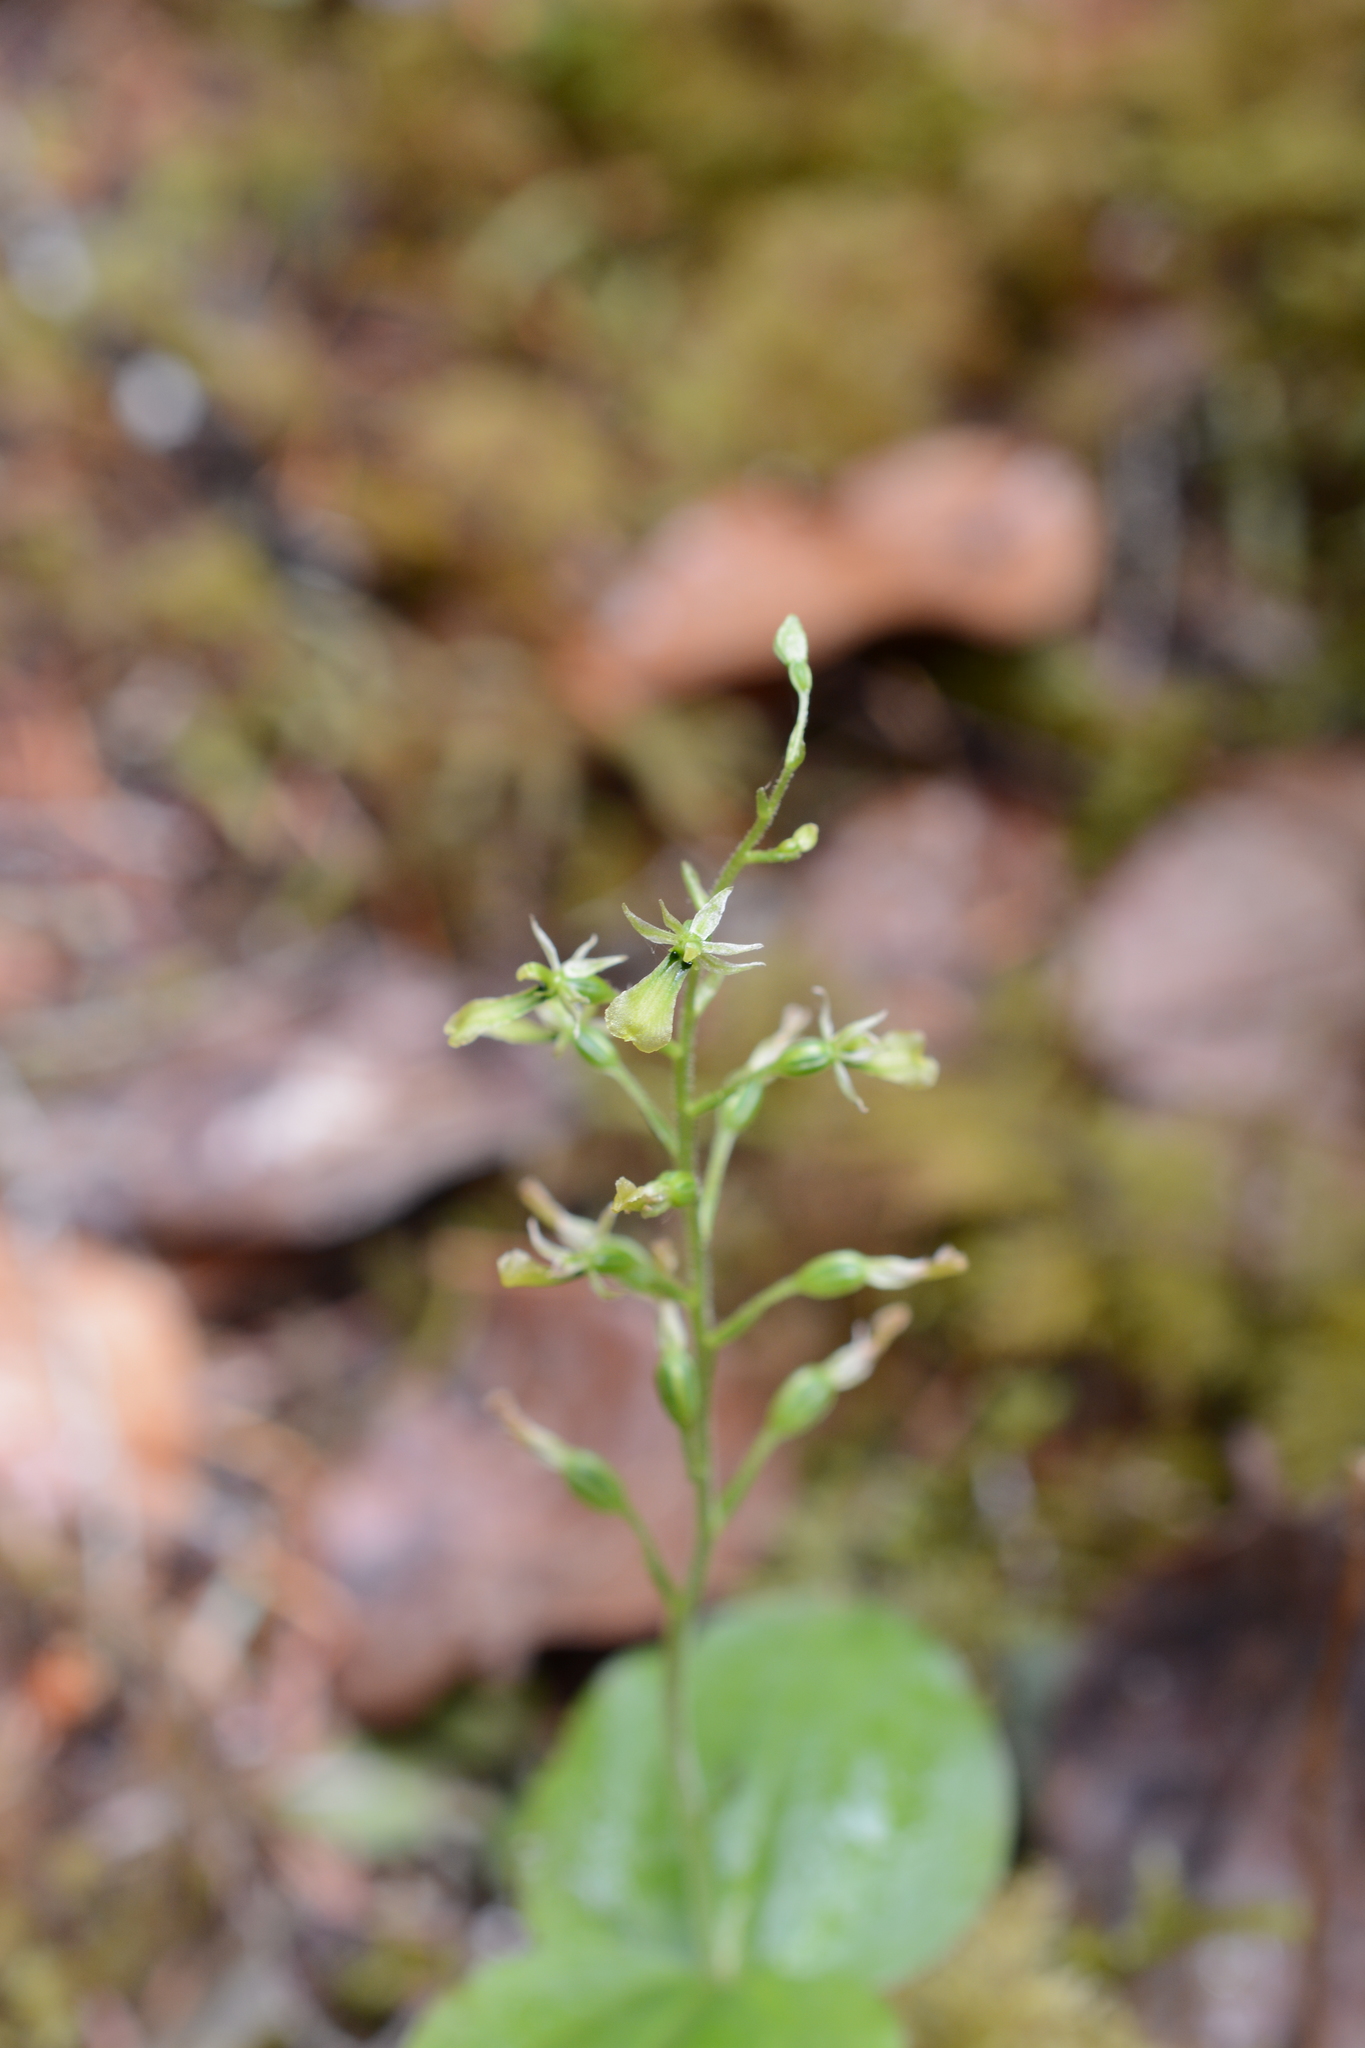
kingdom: Plantae
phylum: Tracheophyta
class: Liliopsida
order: Asparagales
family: Orchidaceae
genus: Neottia
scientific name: Neottia banksiana
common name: Northwestern twayblade
